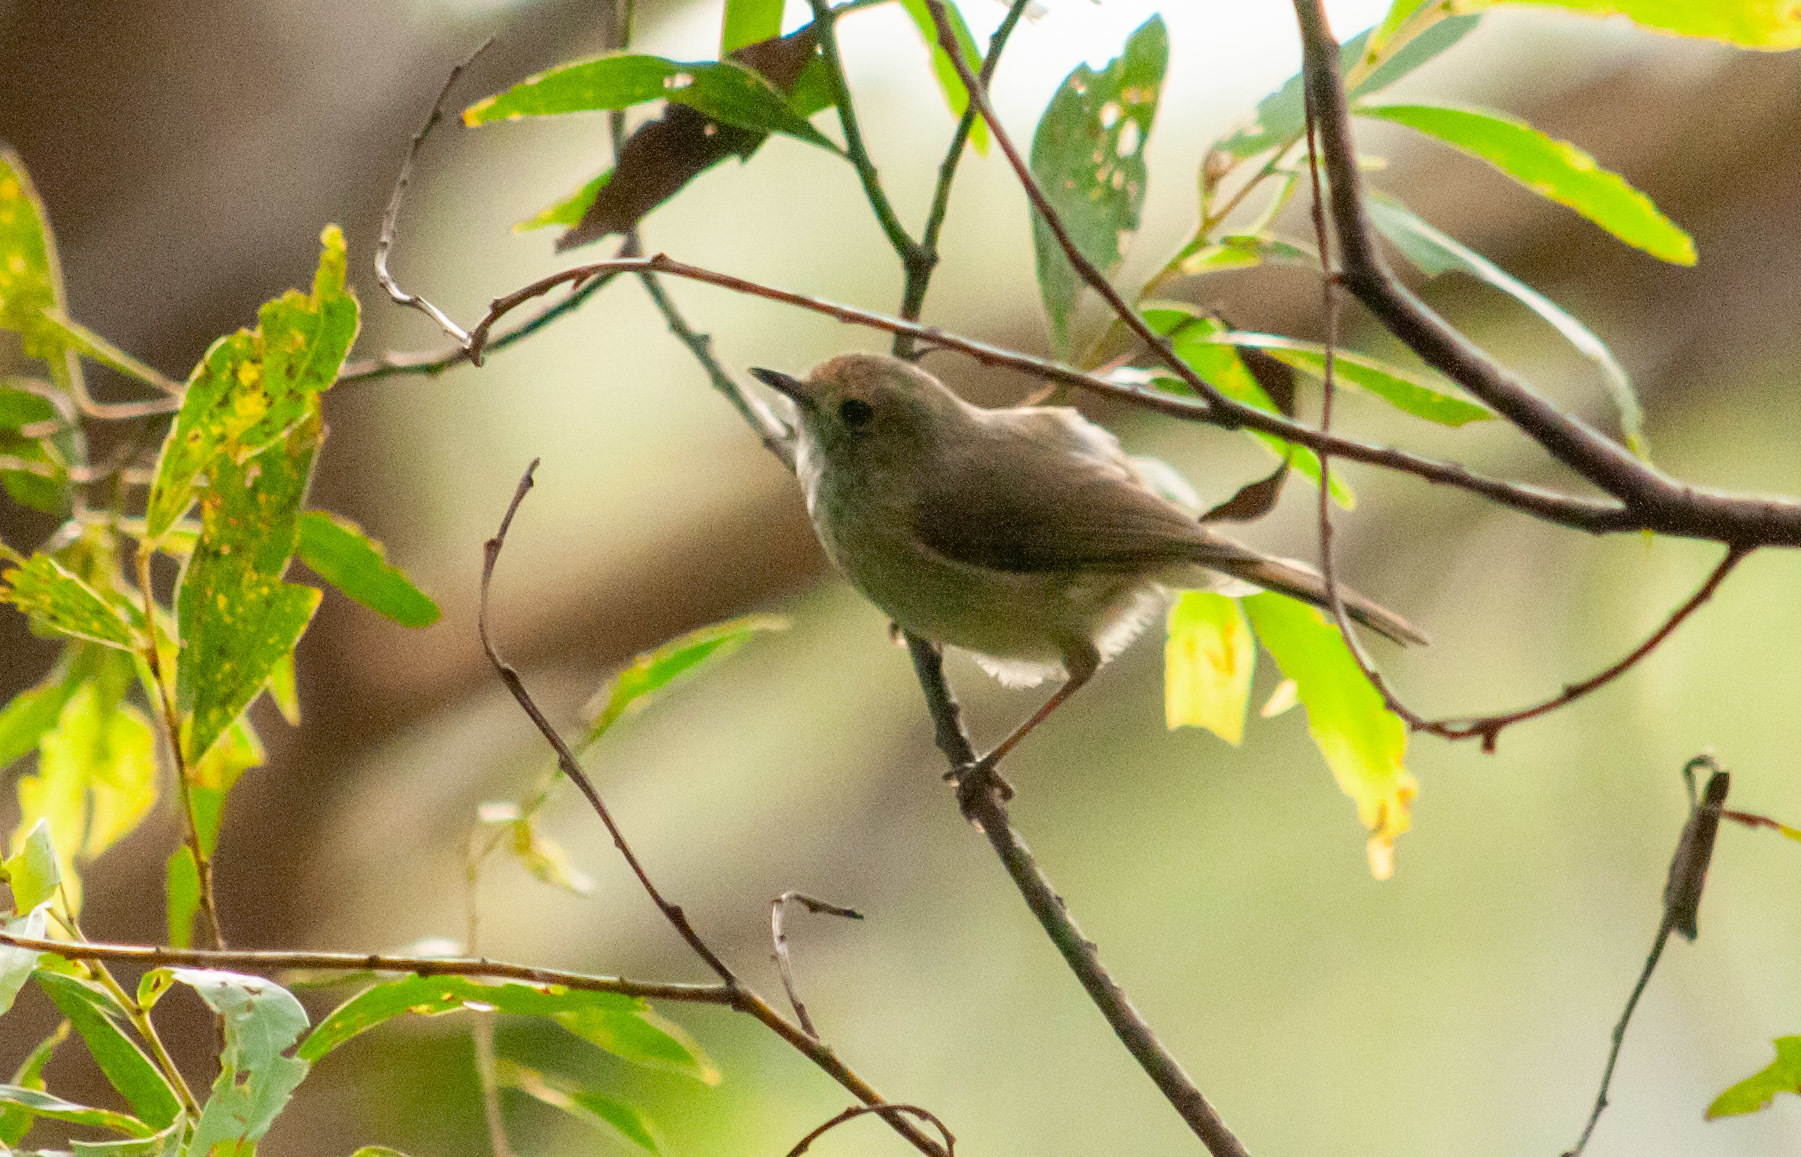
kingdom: Animalia
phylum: Chordata
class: Aves
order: Passeriformes
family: Acanthizidae
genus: Acanthiza
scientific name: Acanthiza pusilla
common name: Brown thornbill
